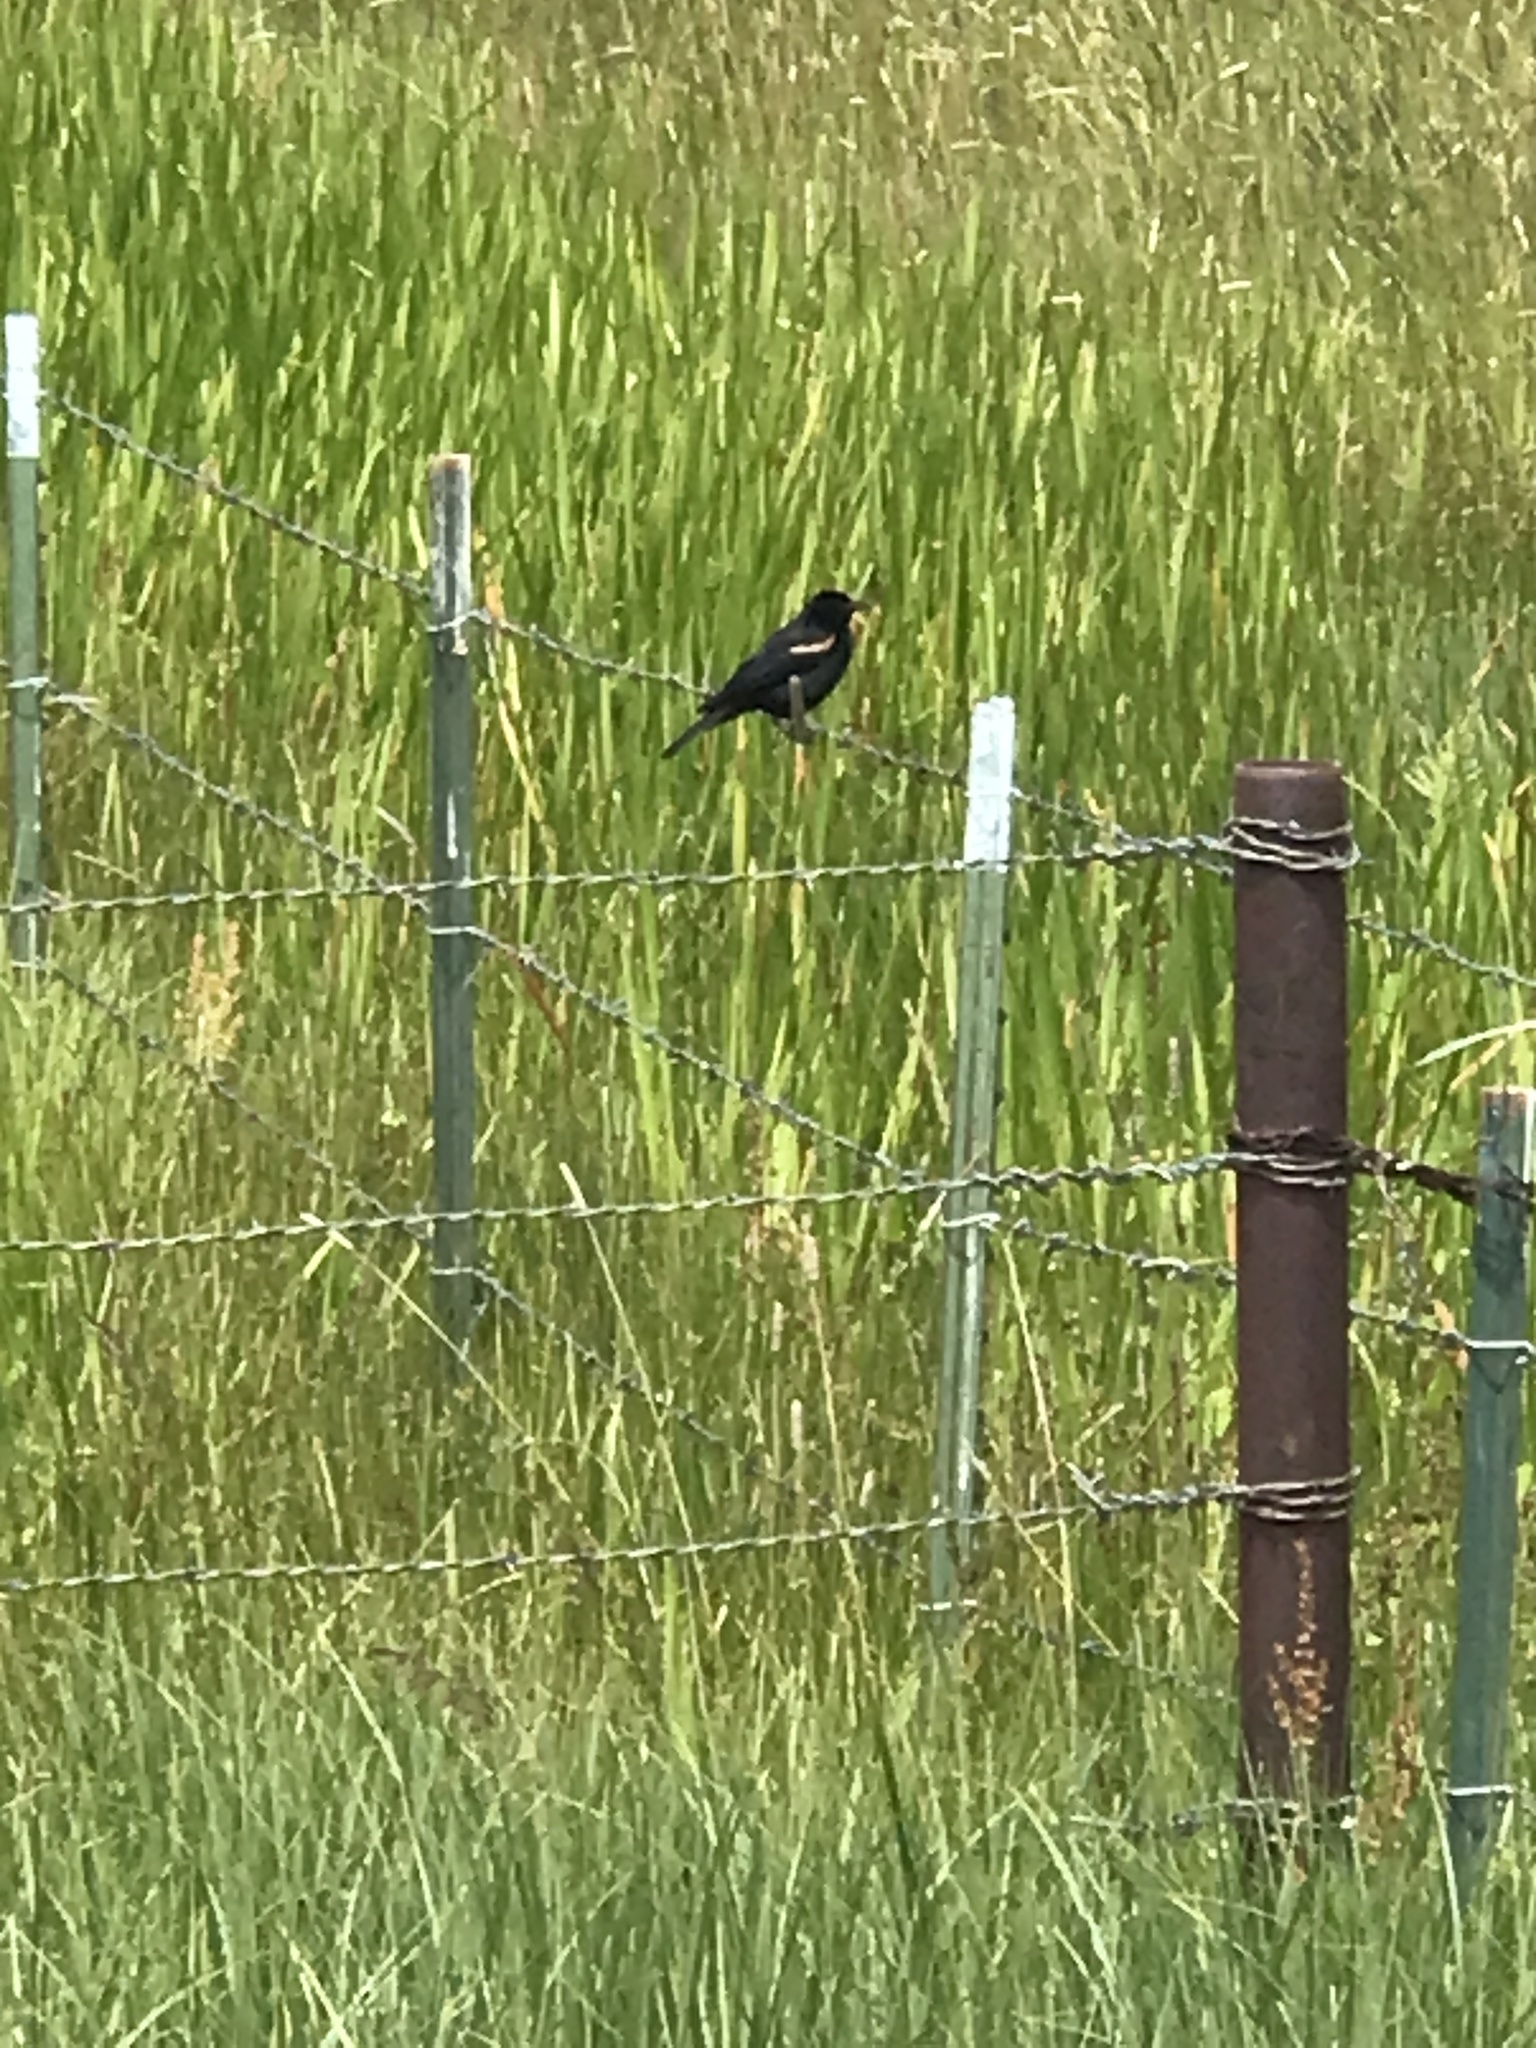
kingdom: Animalia
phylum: Chordata
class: Aves
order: Passeriformes
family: Icteridae
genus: Agelaius
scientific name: Agelaius tricolor
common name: Tricolored blackbird
